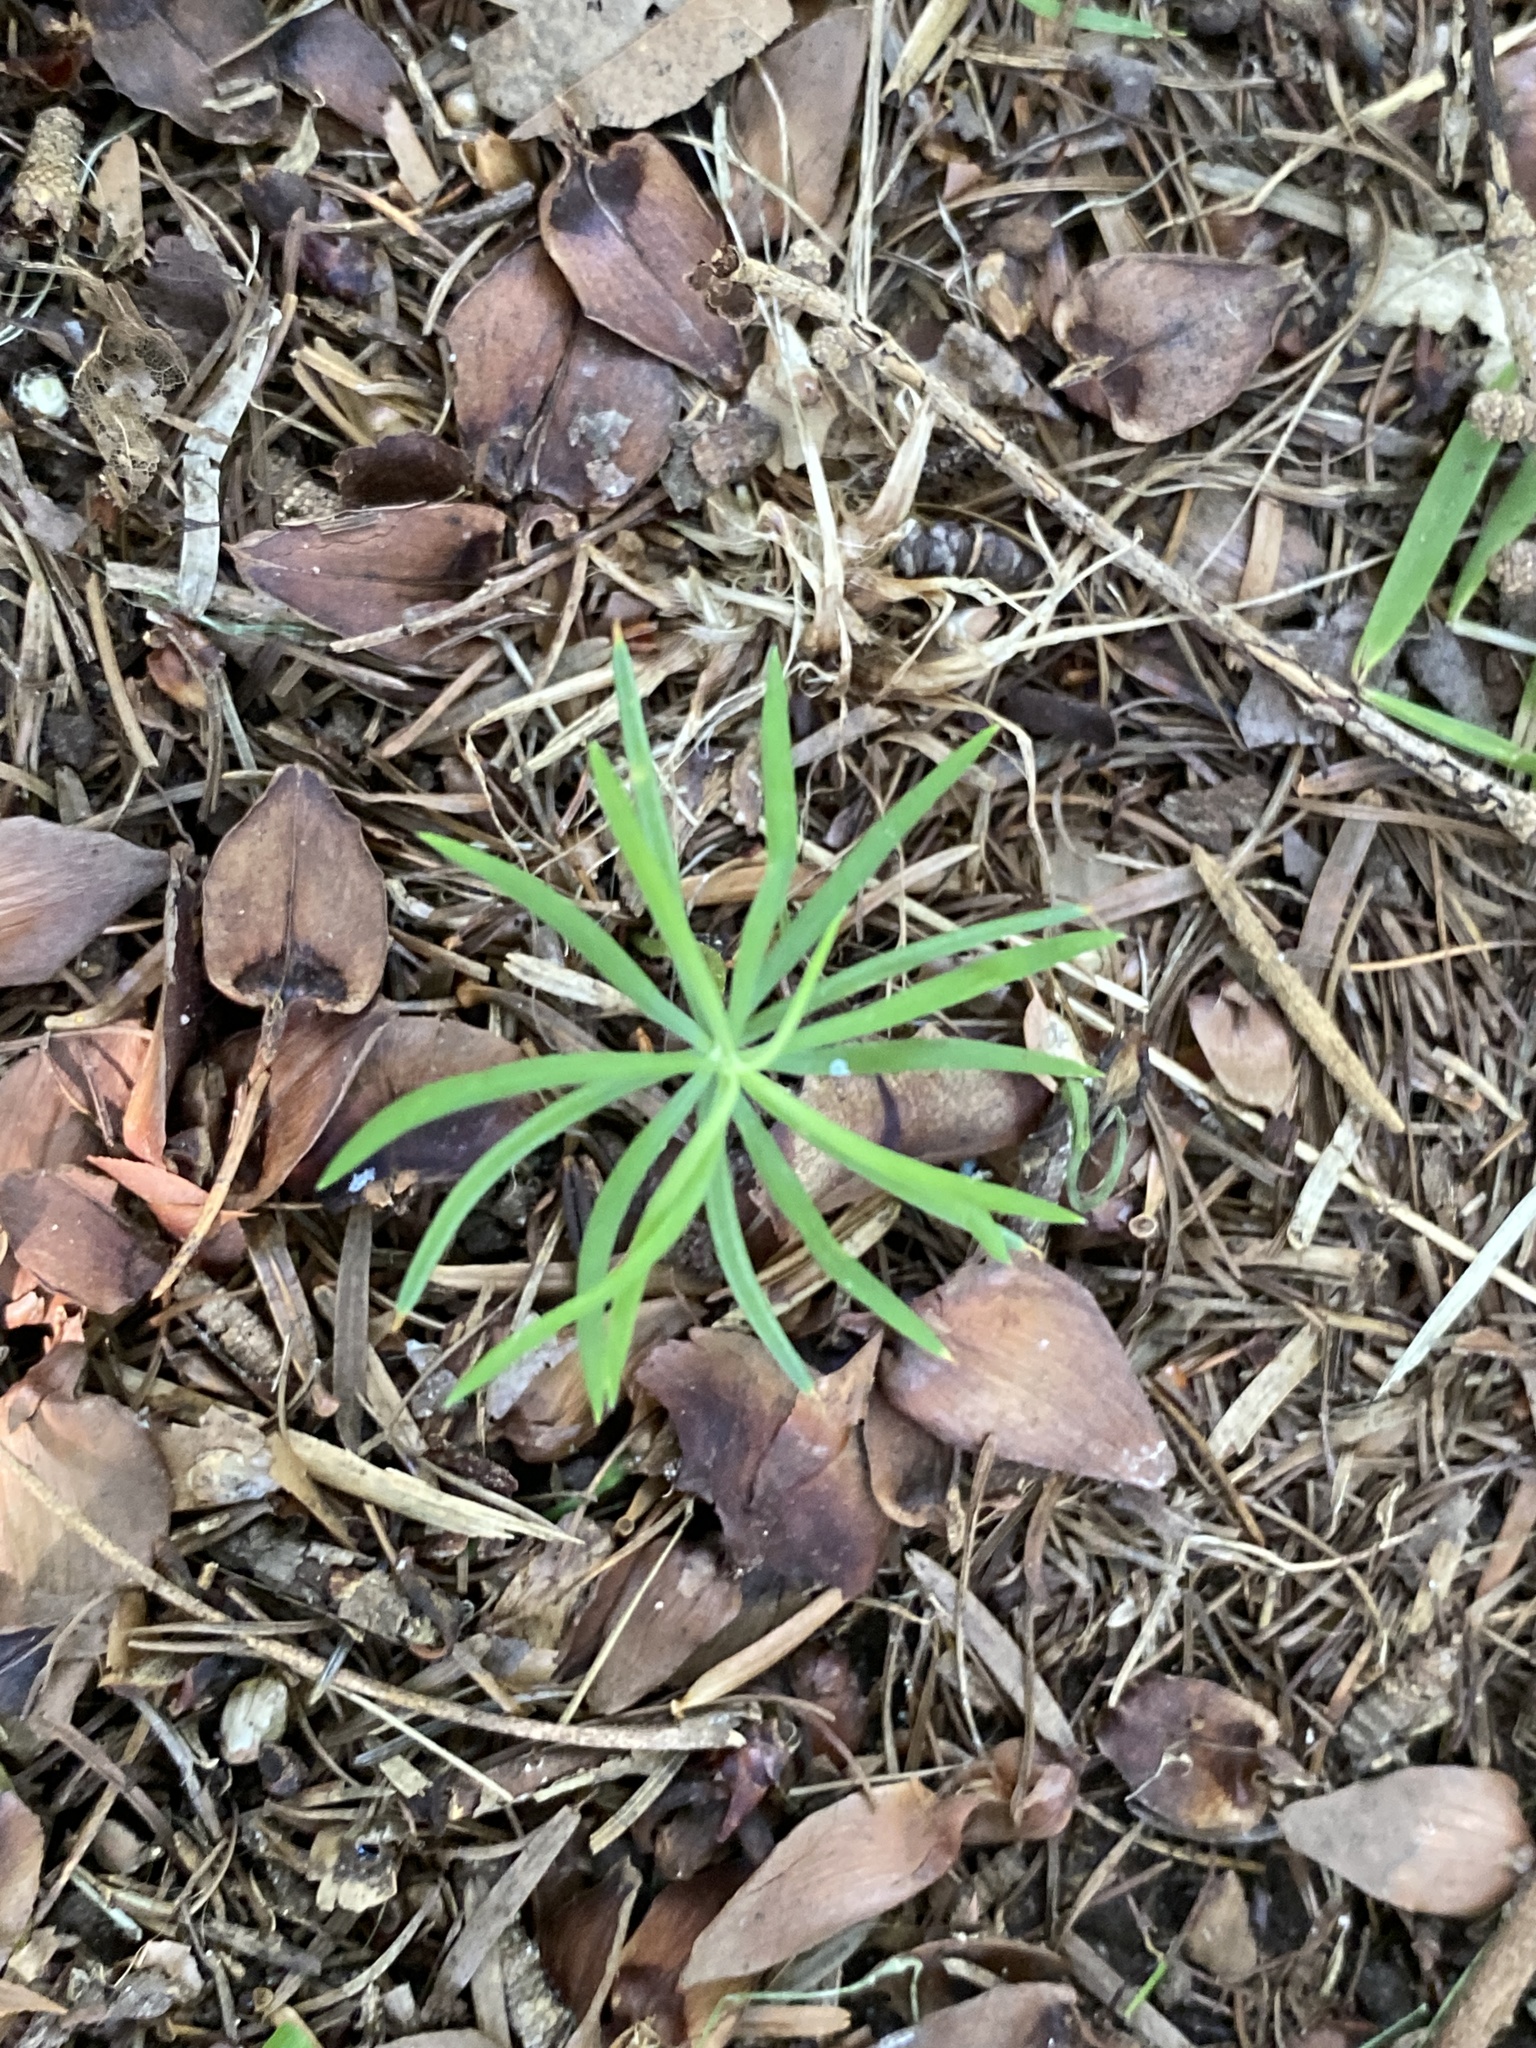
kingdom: Plantae
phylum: Tracheophyta
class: Pinopsida
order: Pinales
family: Pinaceae
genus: Pinus
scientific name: Pinus strobus
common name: Weymouth pine
